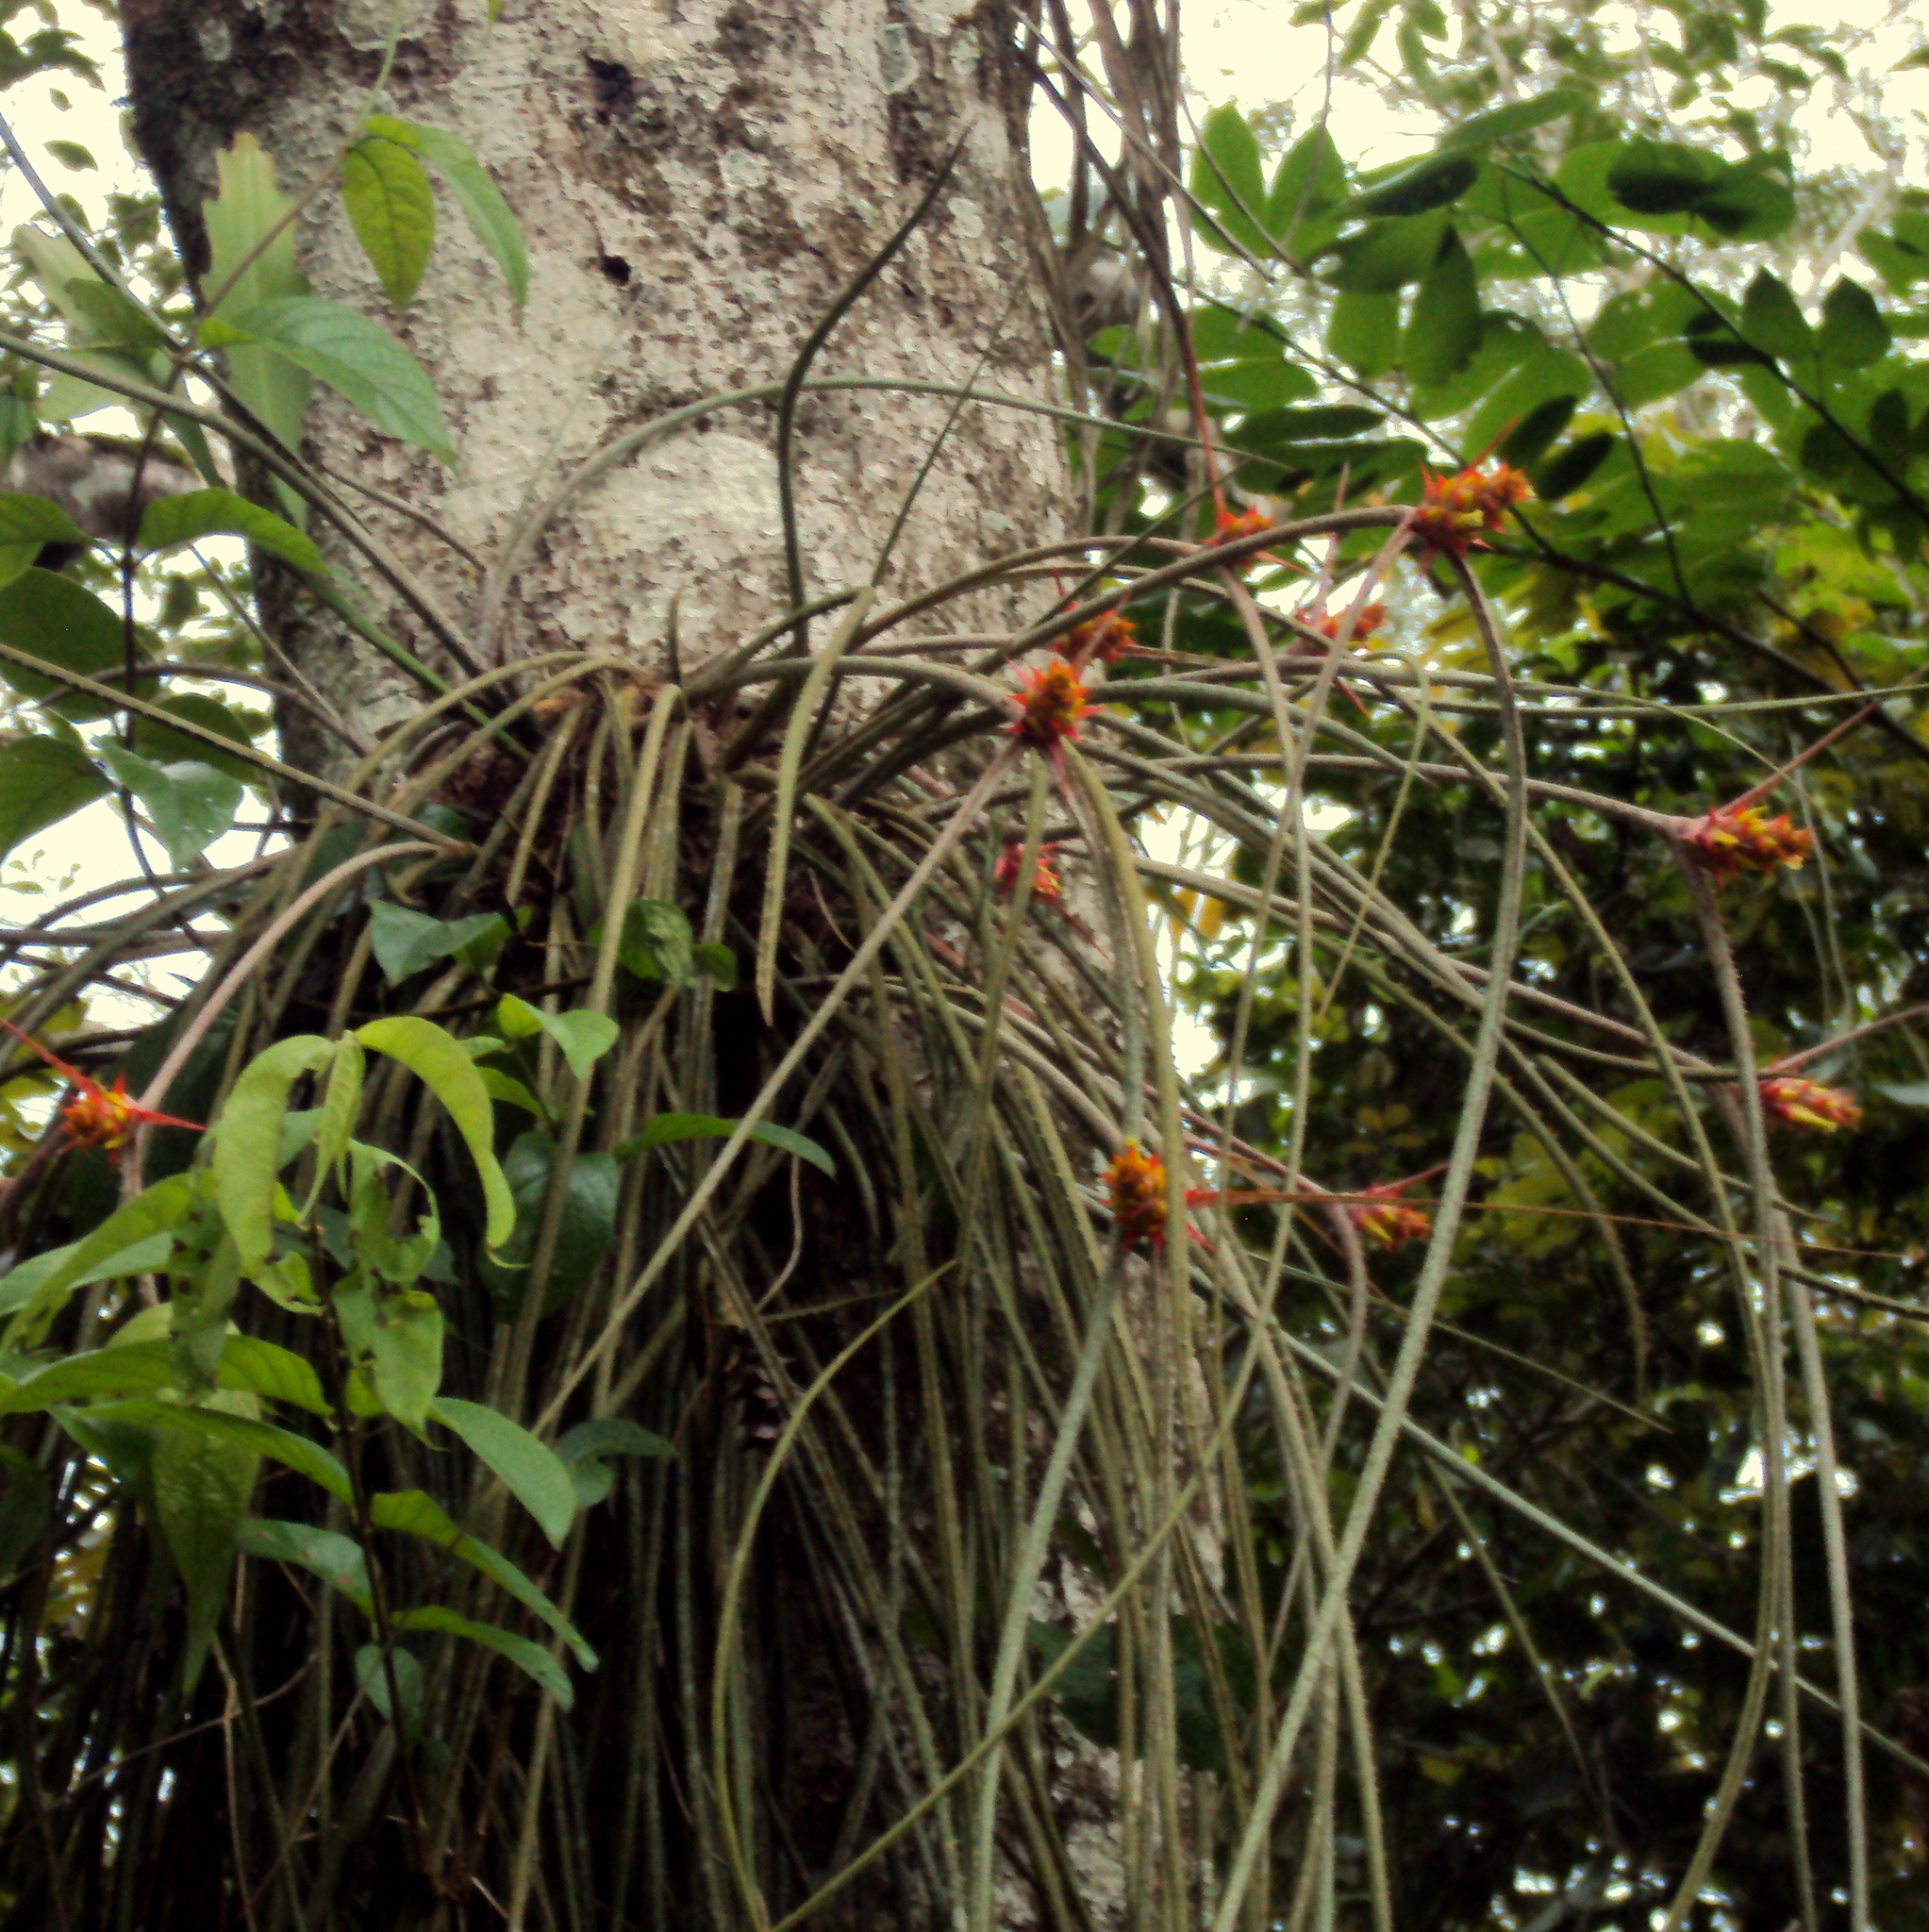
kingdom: Plantae
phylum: Tracheophyta
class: Liliopsida
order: Poales
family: Bromeliaceae
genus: Acanthostachys
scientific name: Acanthostachys strobilacea
